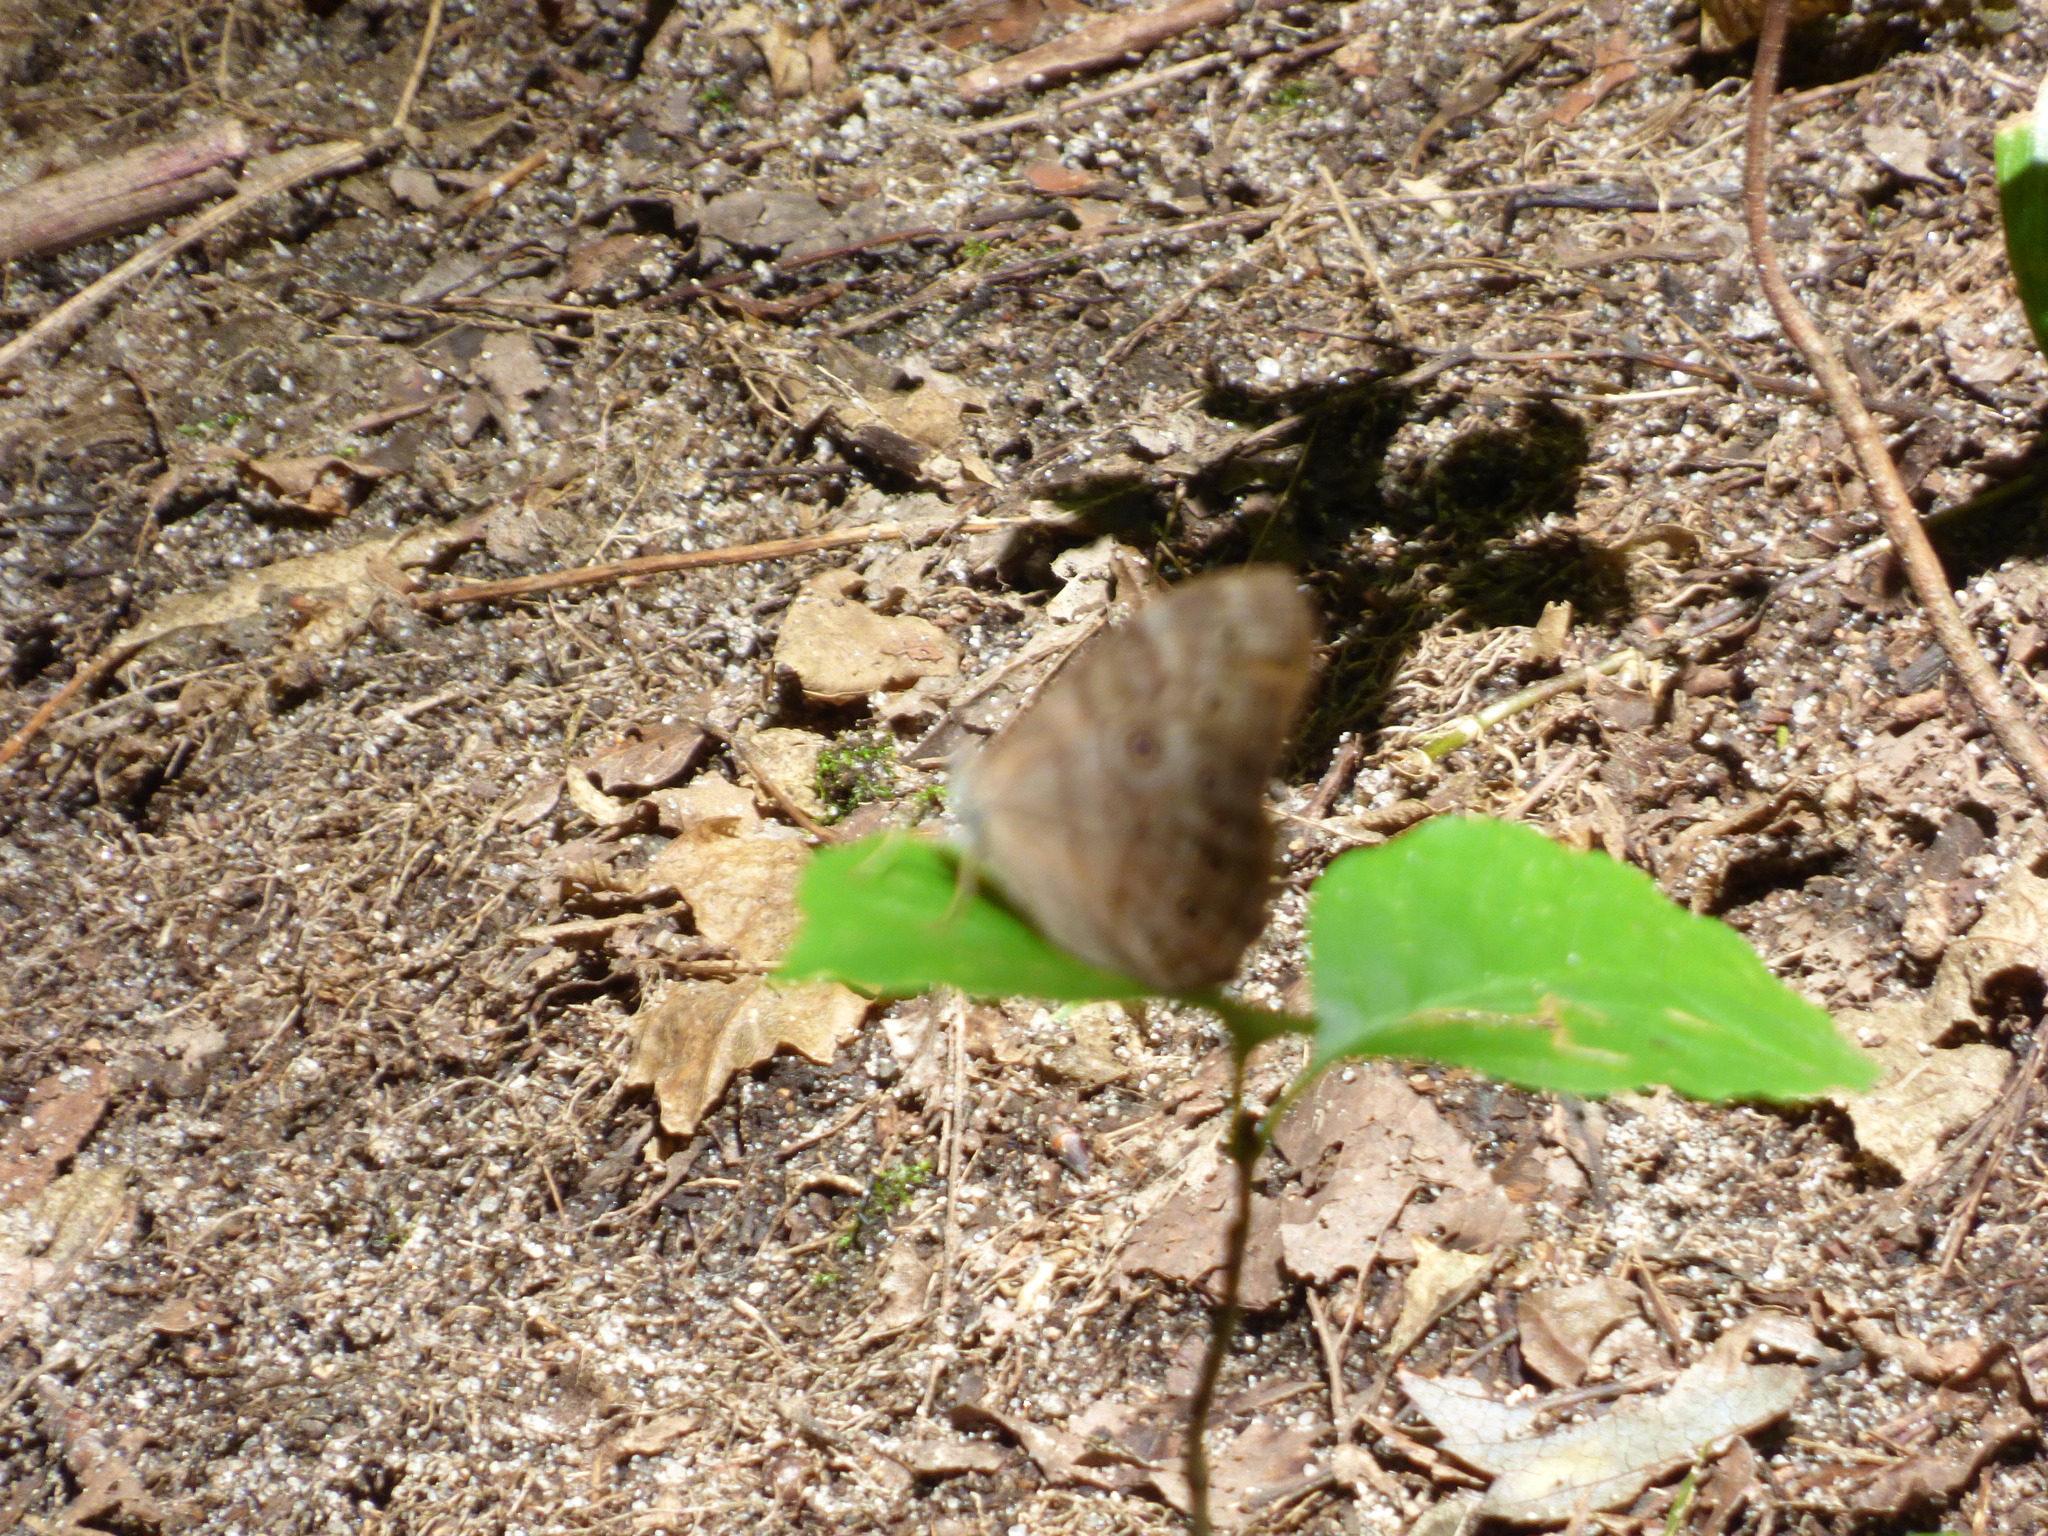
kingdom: Animalia
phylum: Arthropoda
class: Insecta
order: Lepidoptera
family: Nymphalidae
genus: Lethe
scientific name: Lethe anthedon
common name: Northern pearly-eye
